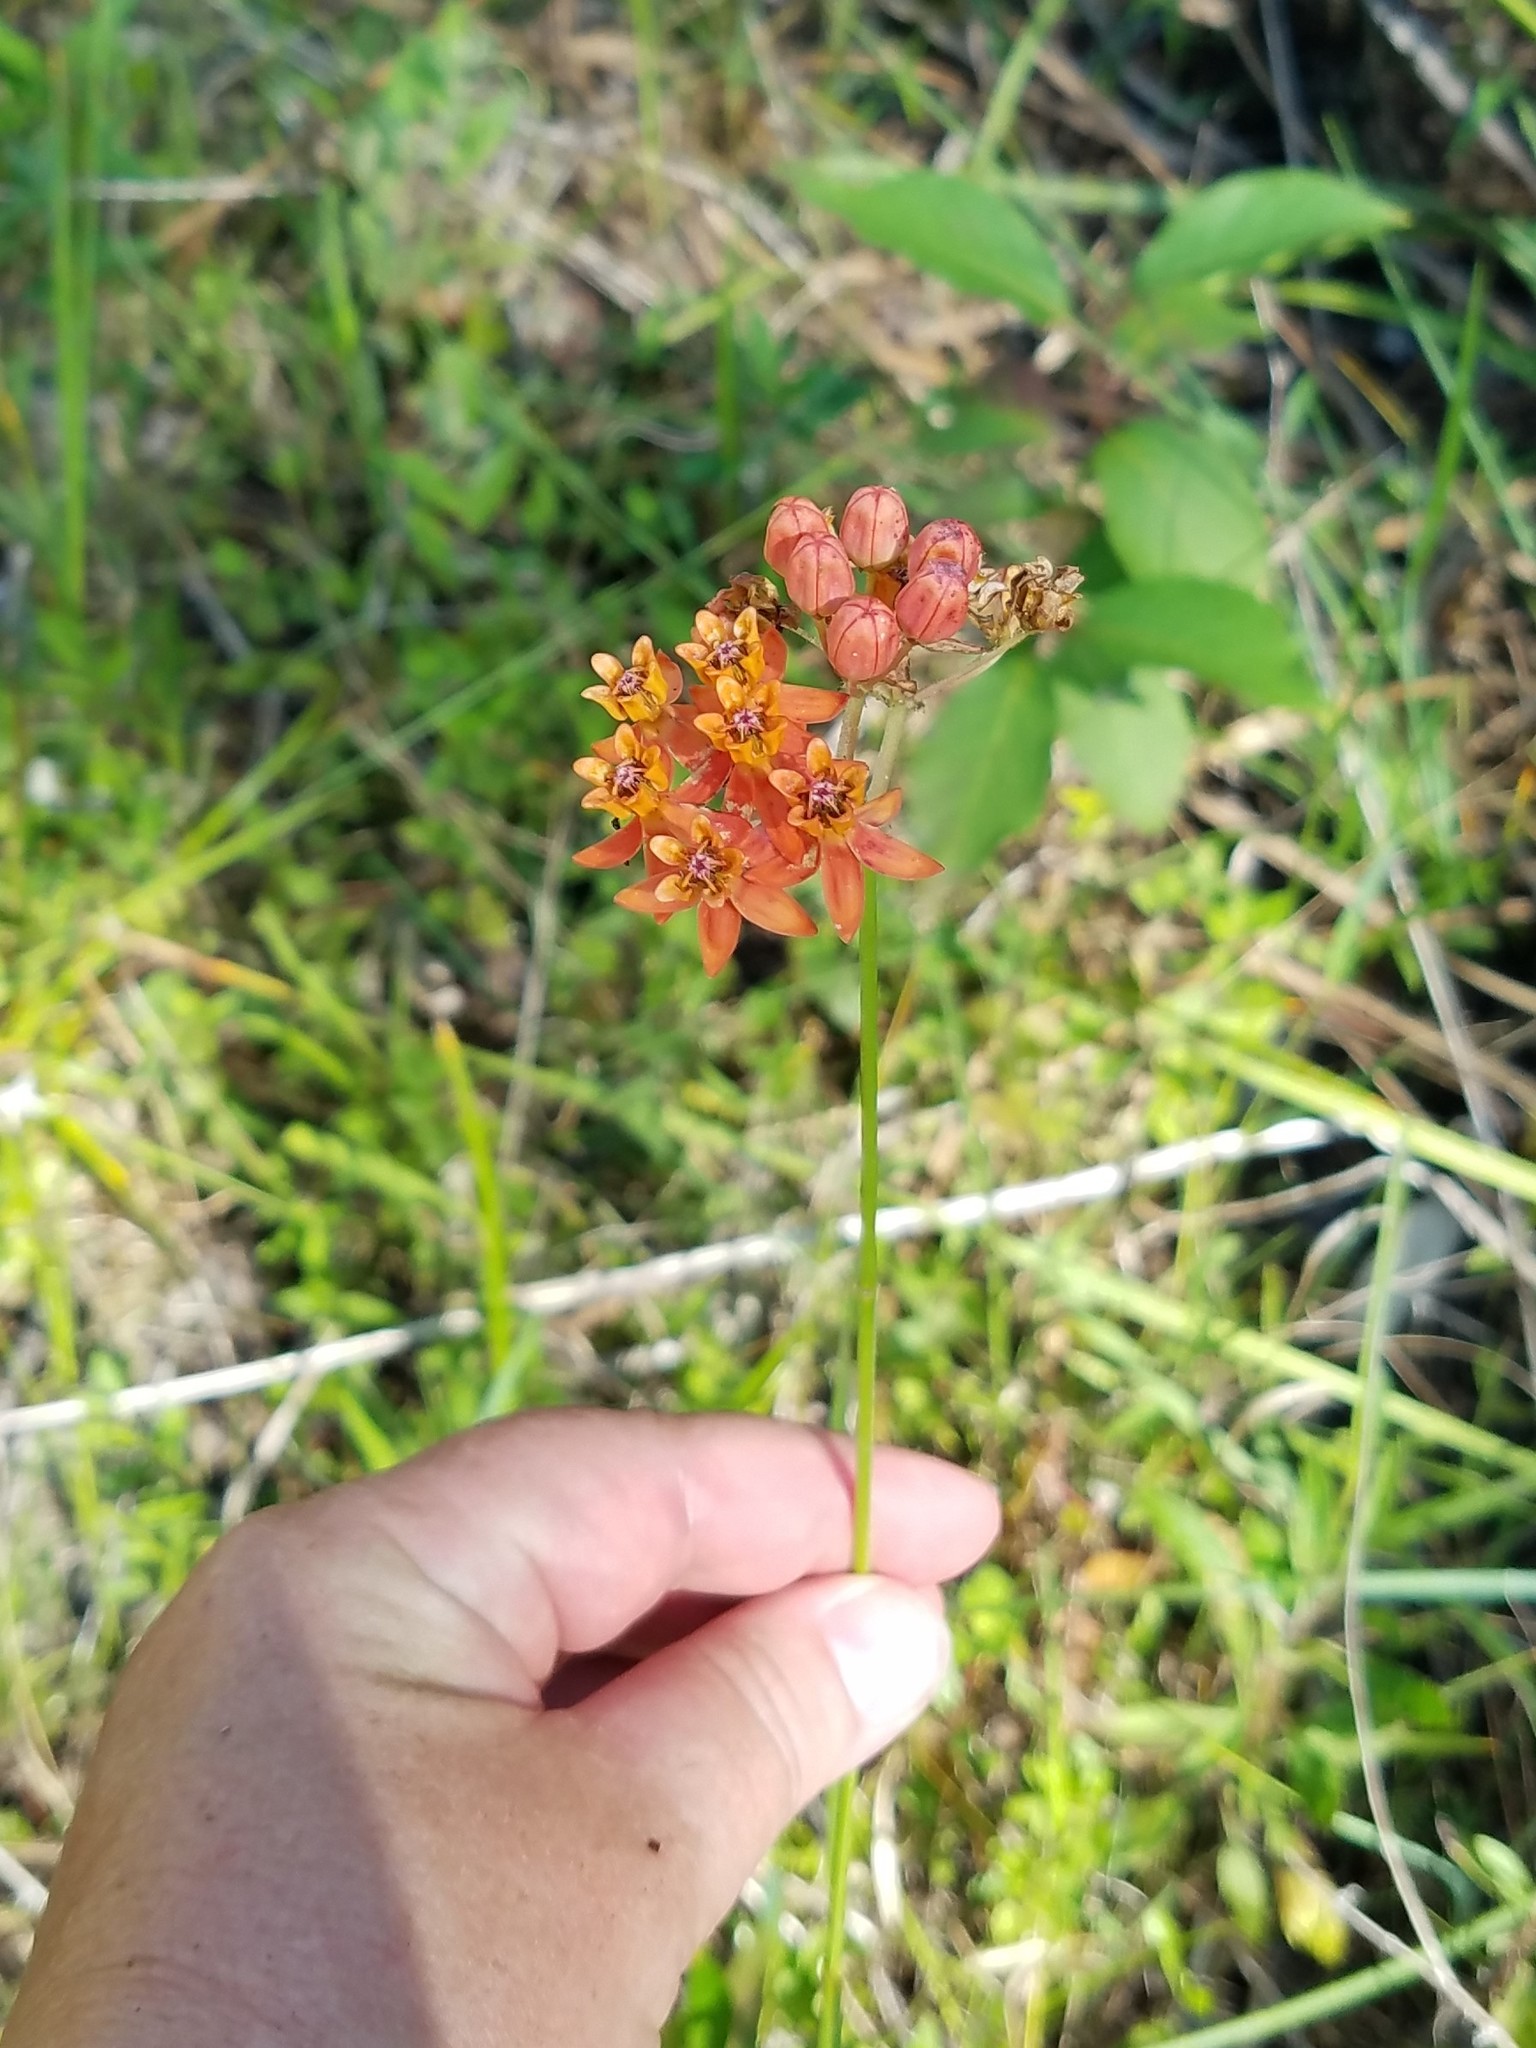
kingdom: Plantae
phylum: Tracheophyta
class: Magnoliopsida
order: Gentianales
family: Apocynaceae
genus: Asclepias
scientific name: Asclepias lanceolata
